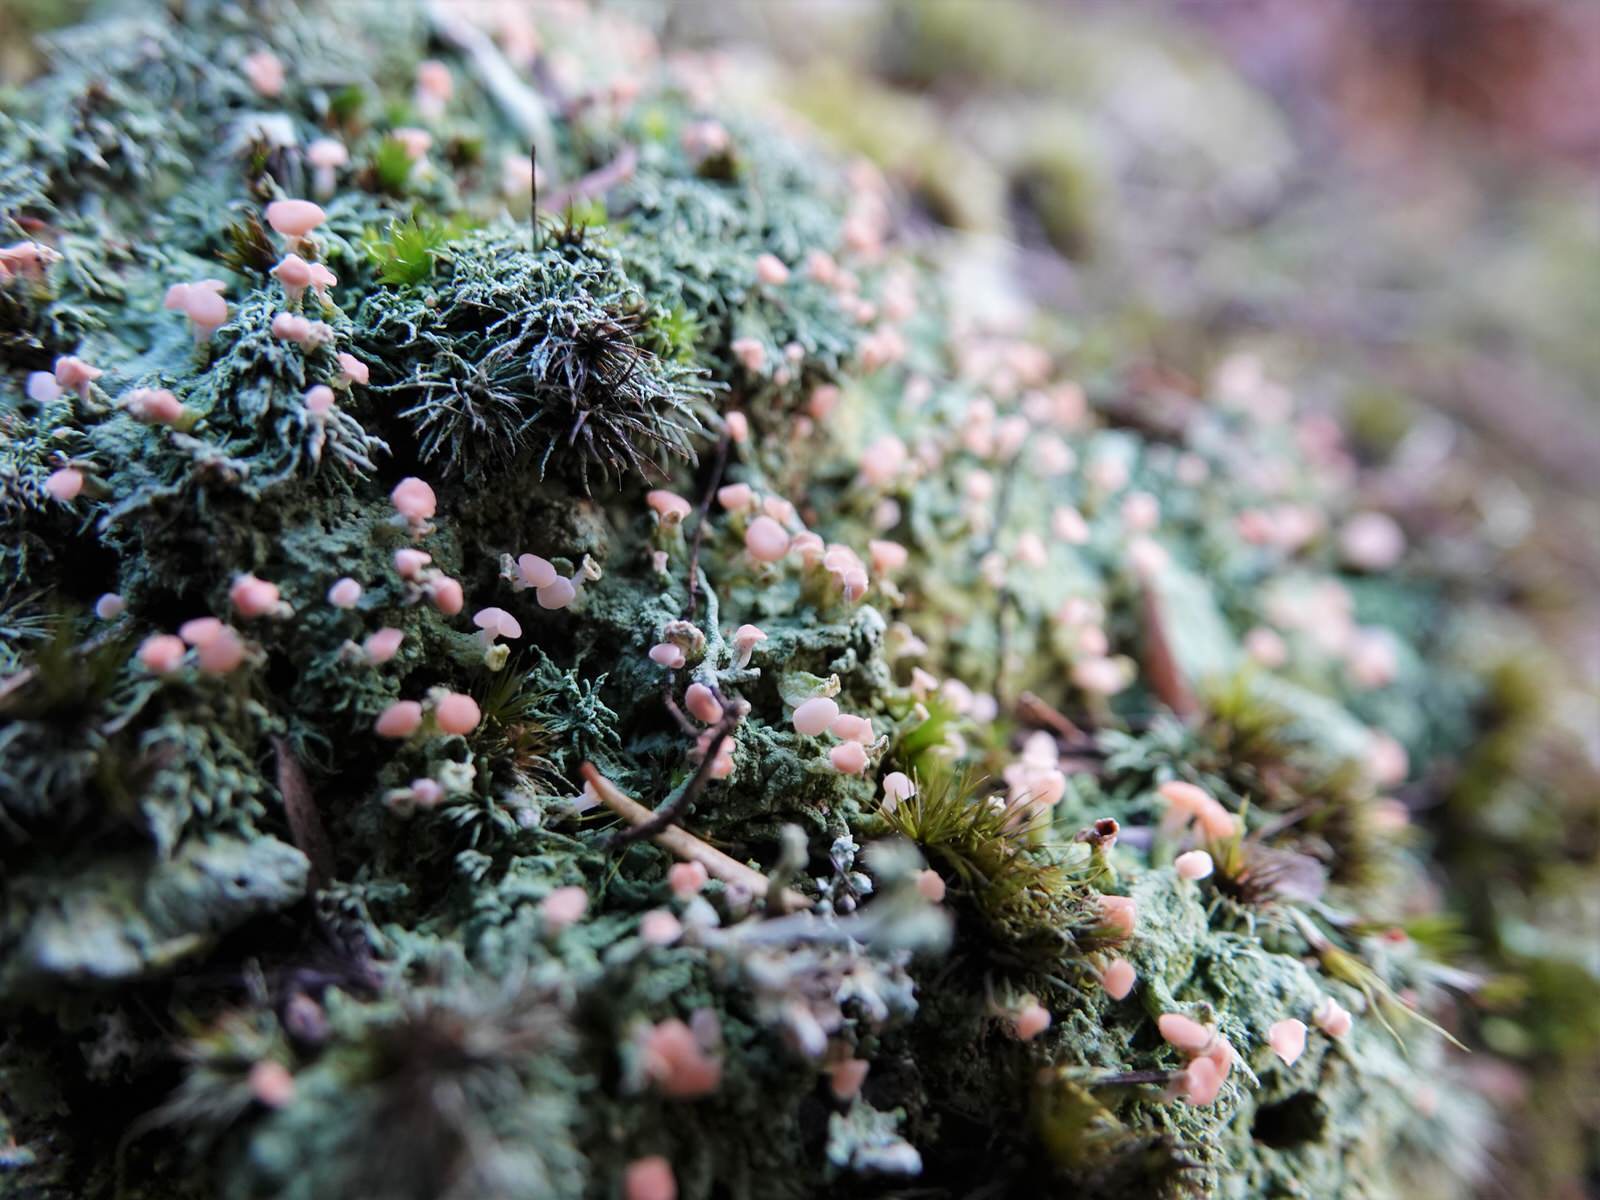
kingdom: Fungi
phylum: Ascomycota
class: Lecanoromycetes
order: Baeomycetales
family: Baeomycetaceae
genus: Baeomyces
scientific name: Baeomyces heteromorphus
